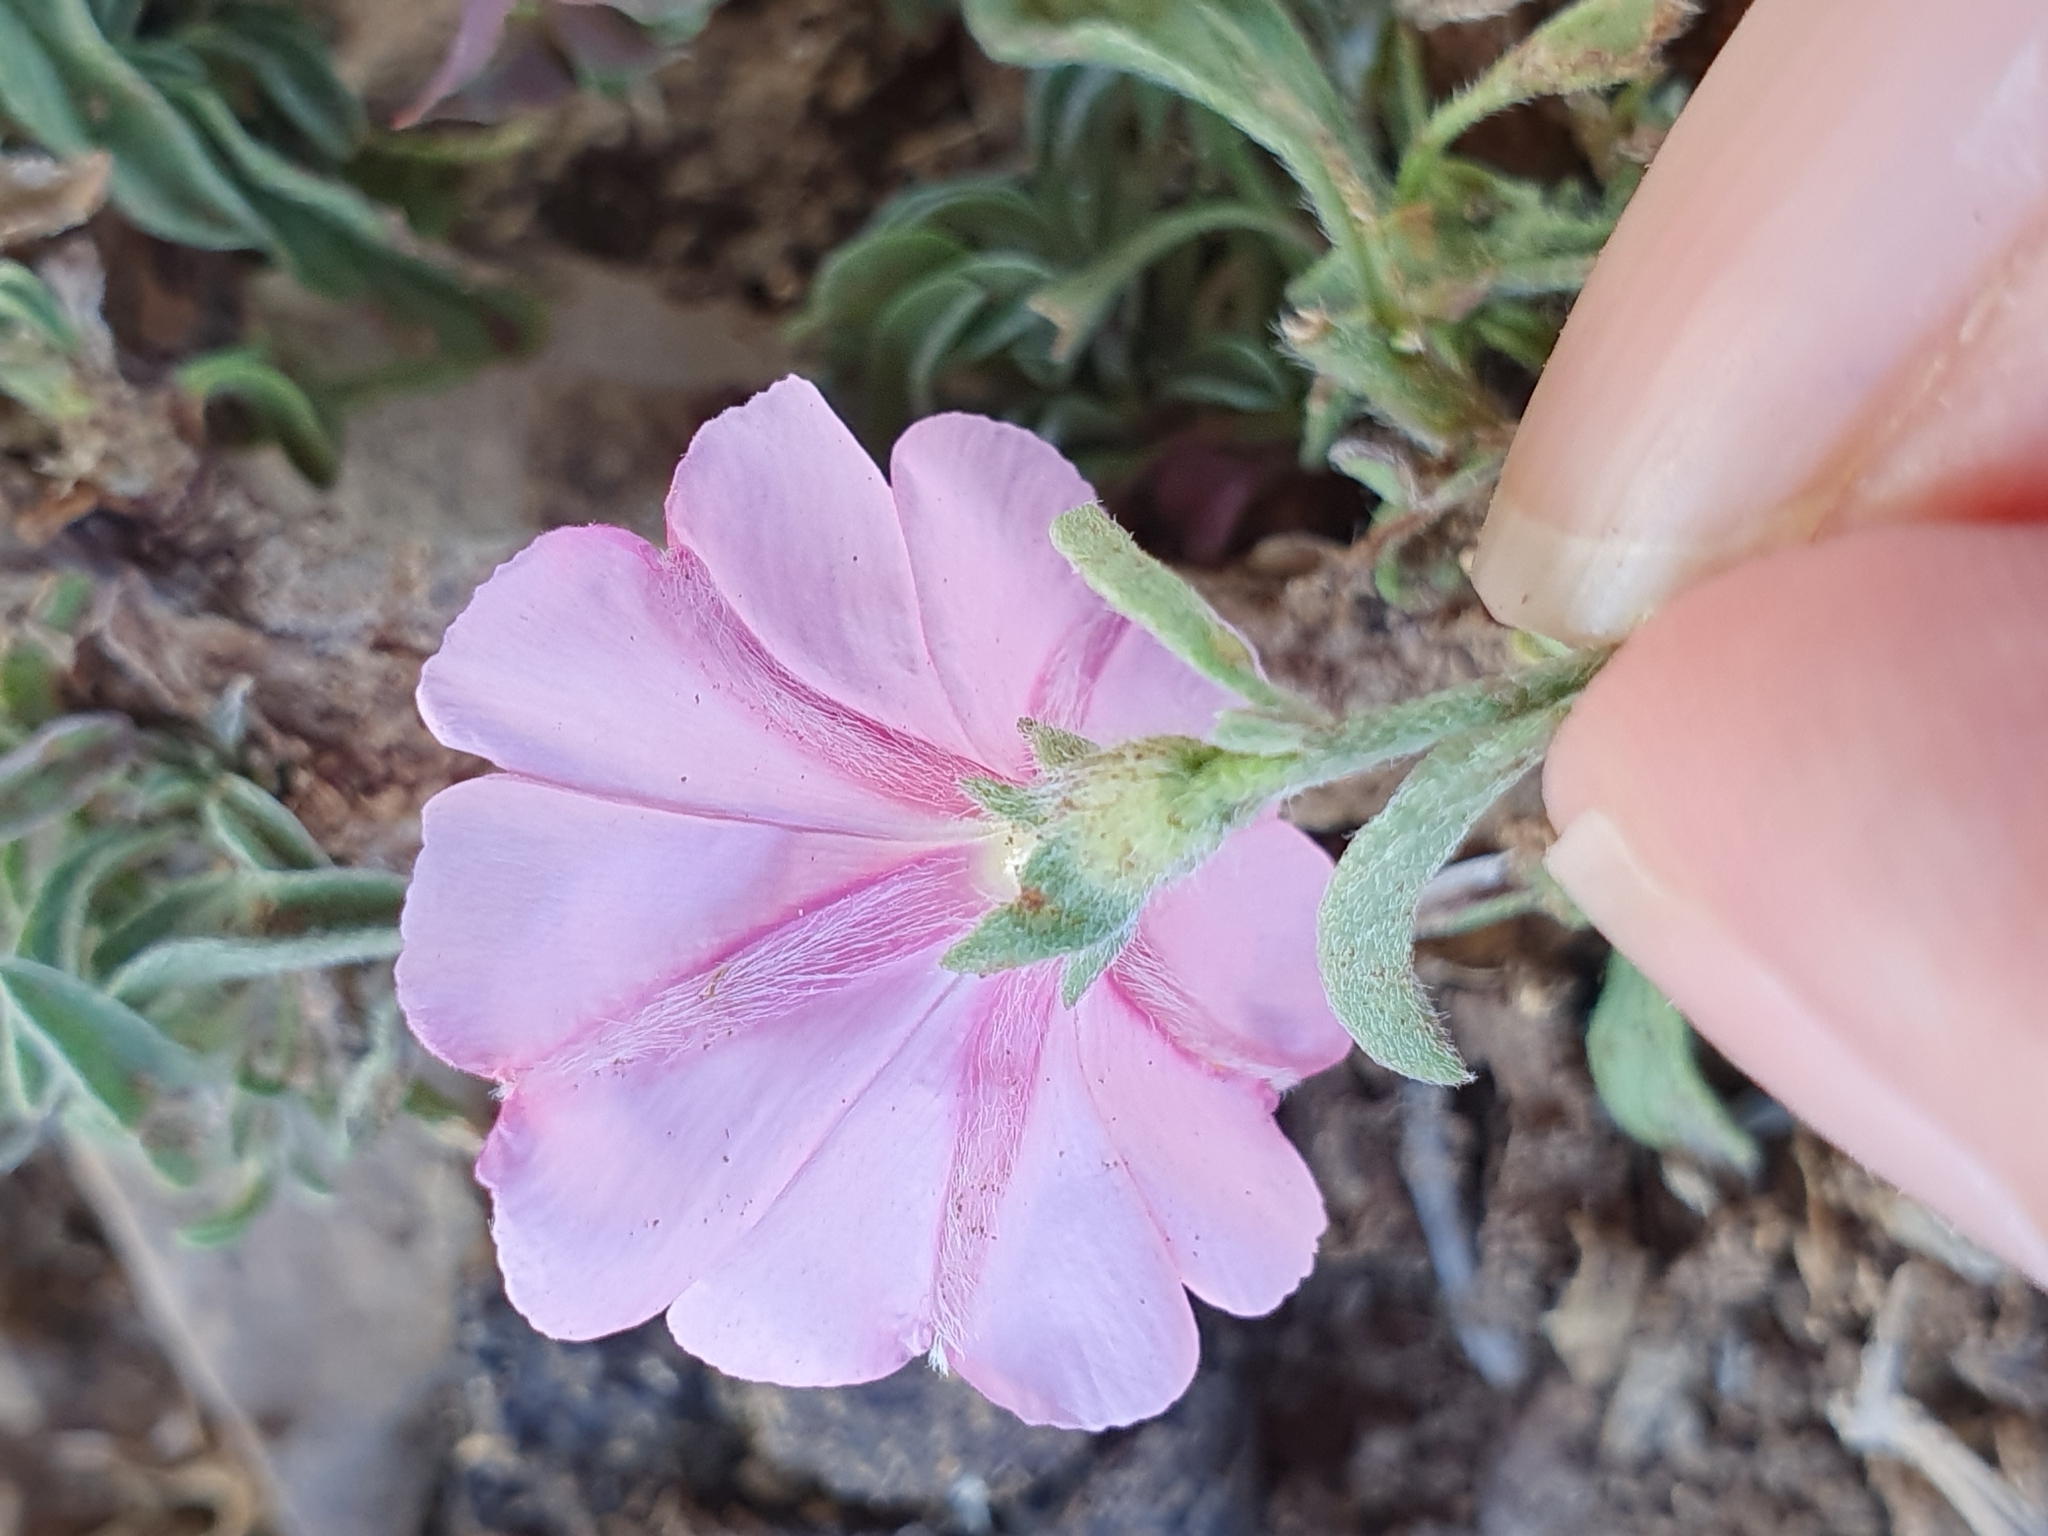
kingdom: Plantae
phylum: Tracheophyta
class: Magnoliopsida
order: Solanales
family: Convolvulaceae
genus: Convolvulus
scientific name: Convolvulus cantabrica
